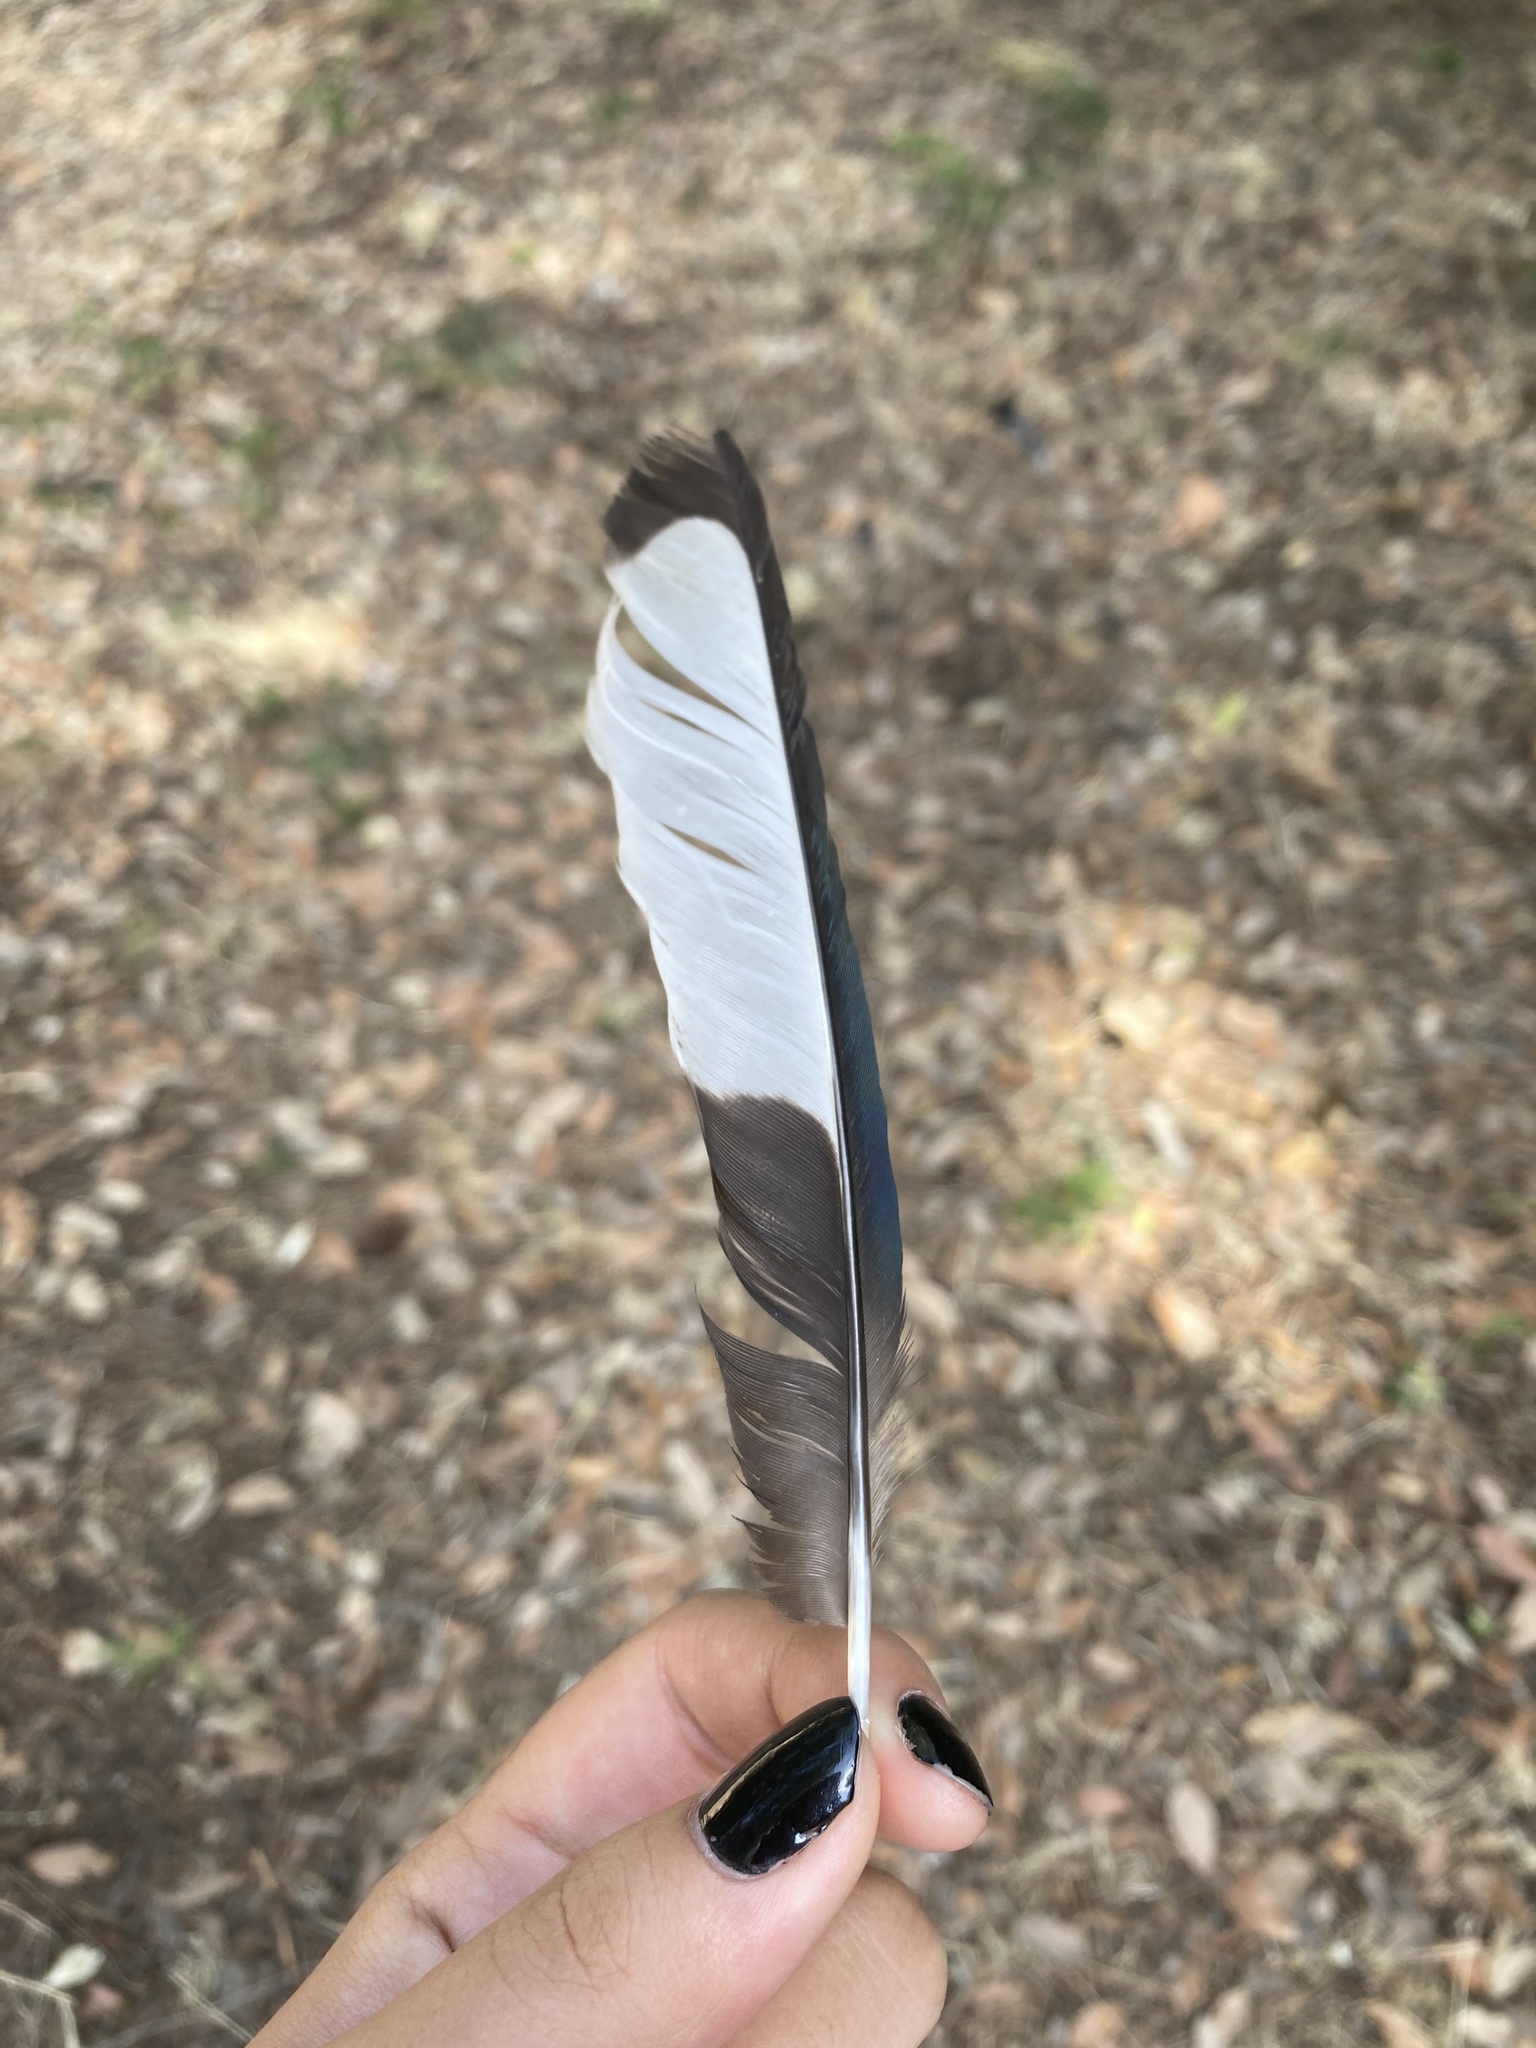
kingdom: Animalia
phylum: Chordata
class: Aves
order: Passeriformes
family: Corvidae
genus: Pica
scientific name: Pica pica
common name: Eurasian magpie
